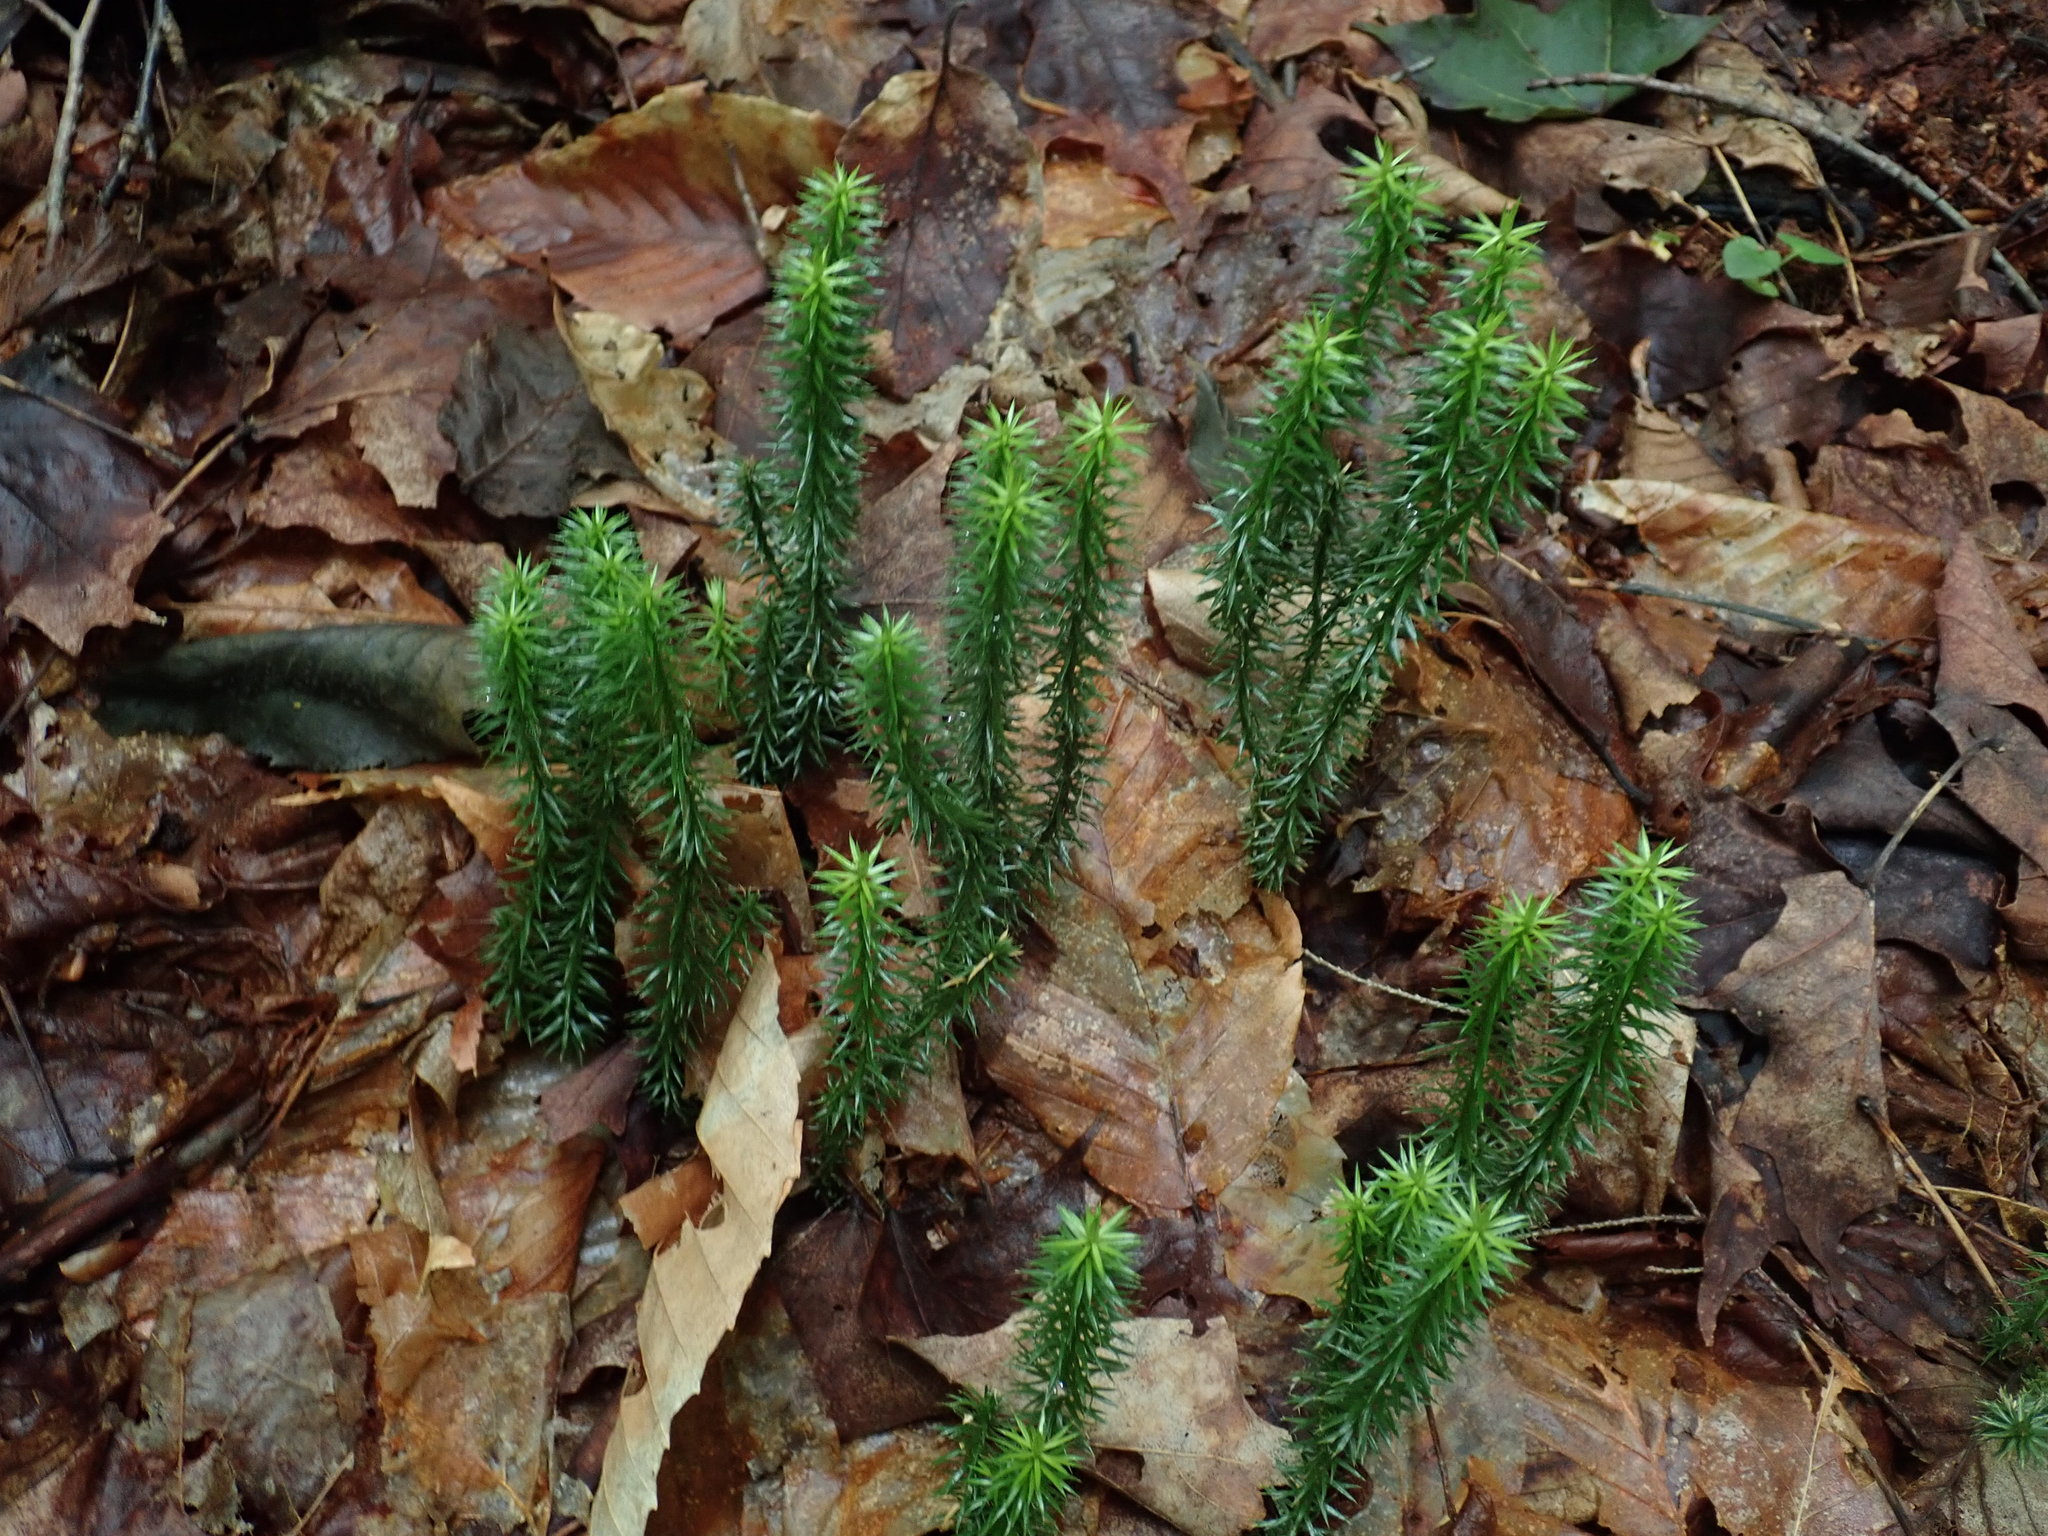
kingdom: Plantae
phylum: Tracheophyta
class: Lycopodiopsida
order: Lycopodiales
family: Lycopodiaceae
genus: Spinulum
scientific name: Spinulum annotinum
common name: Interrupted club-moss
